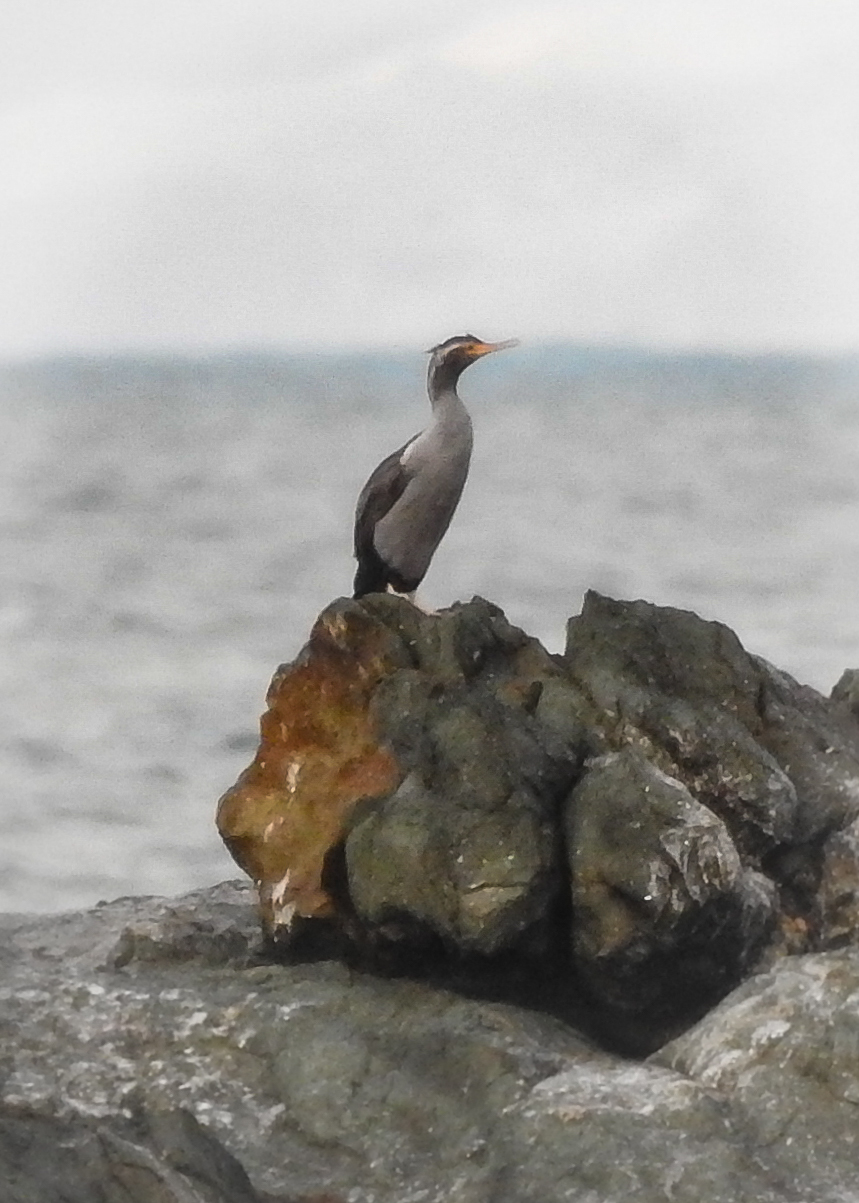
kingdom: Animalia
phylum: Chordata
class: Aves
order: Suliformes
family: Phalacrocoracidae
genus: Phalacrocorax
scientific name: Phalacrocorax punctatus
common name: Spotted shag
